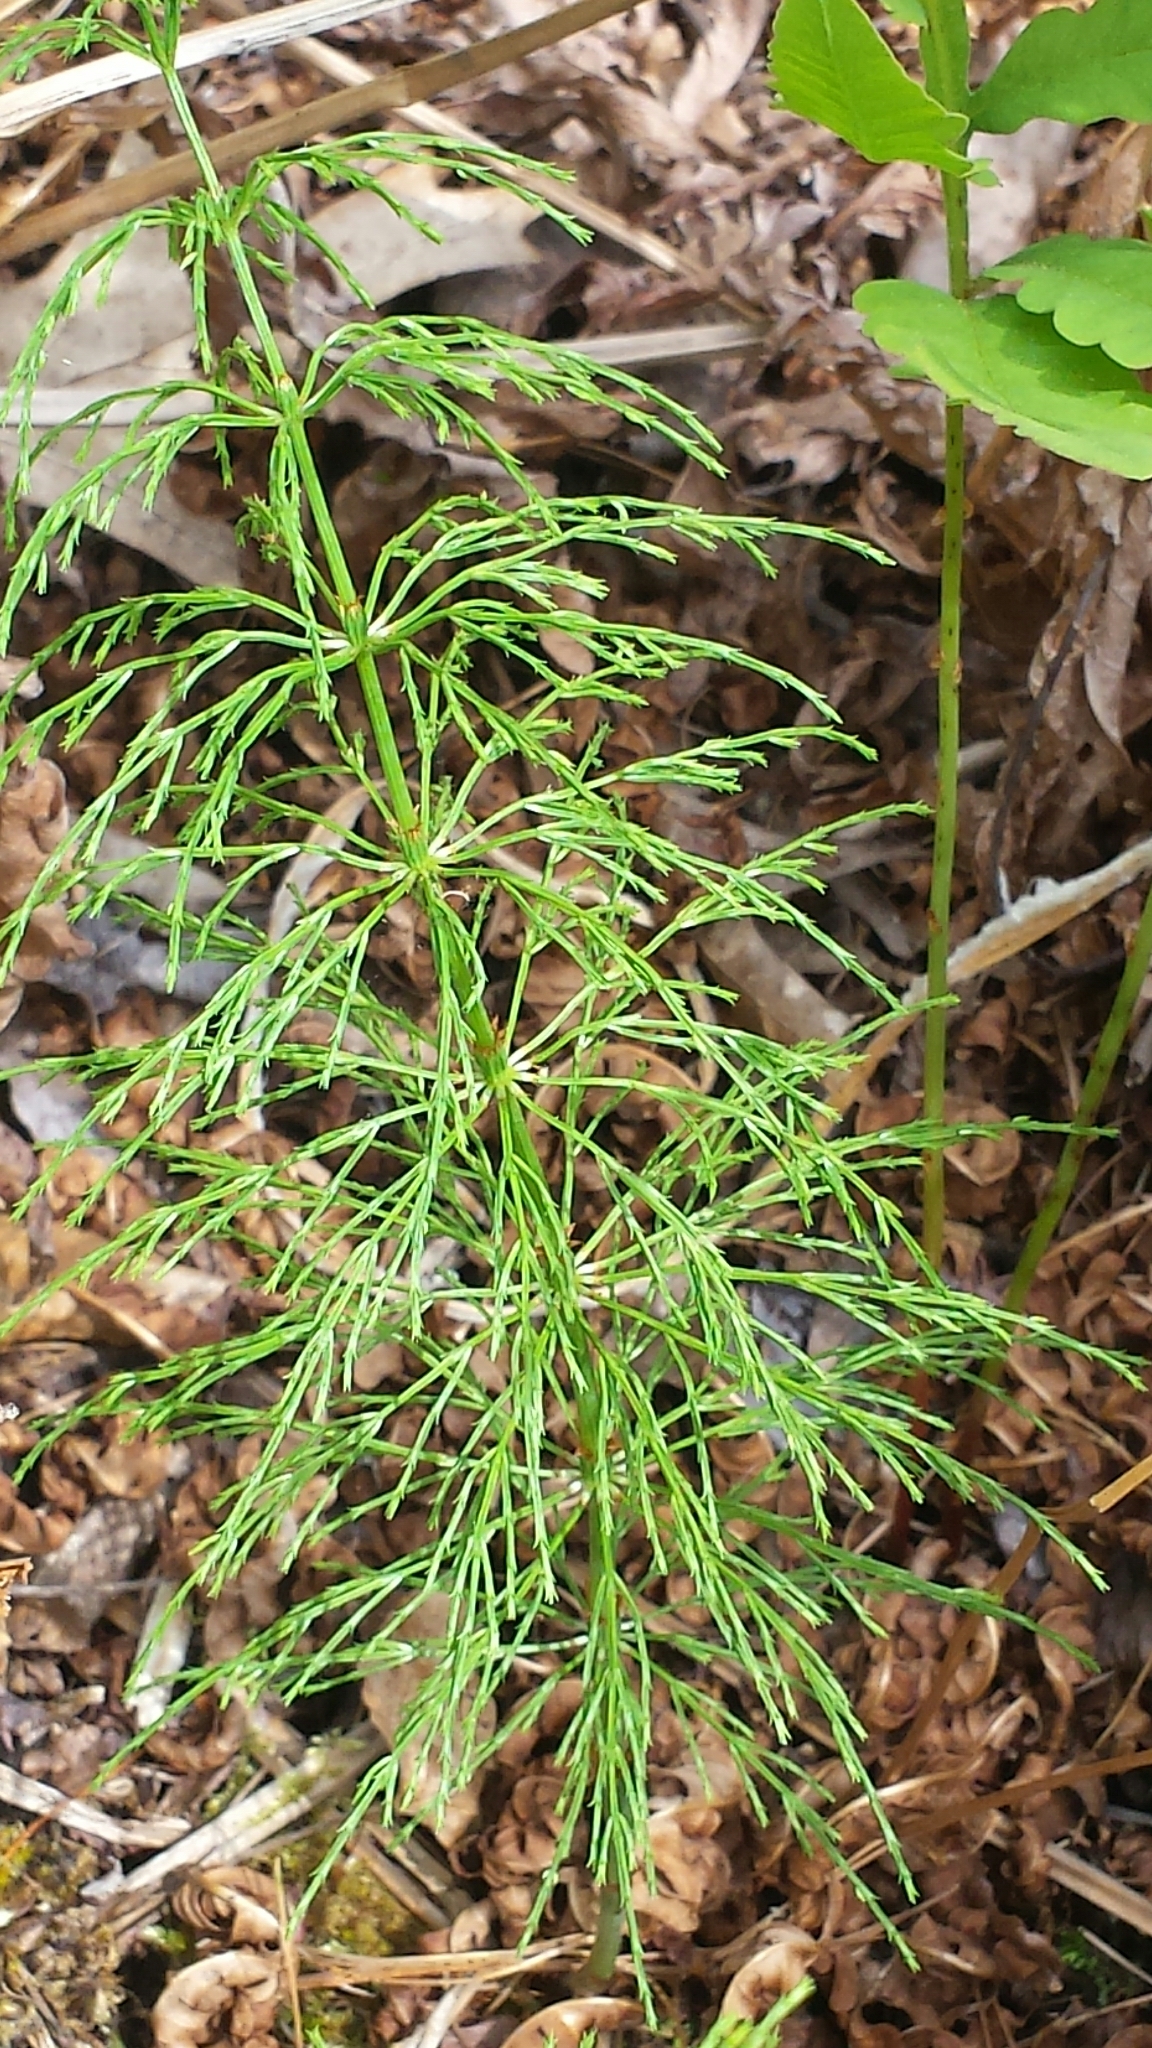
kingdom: Plantae
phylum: Tracheophyta
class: Polypodiopsida
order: Equisetales
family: Equisetaceae
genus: Equisetum
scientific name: Equisetum sylvaticum
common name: Wood horsetail
